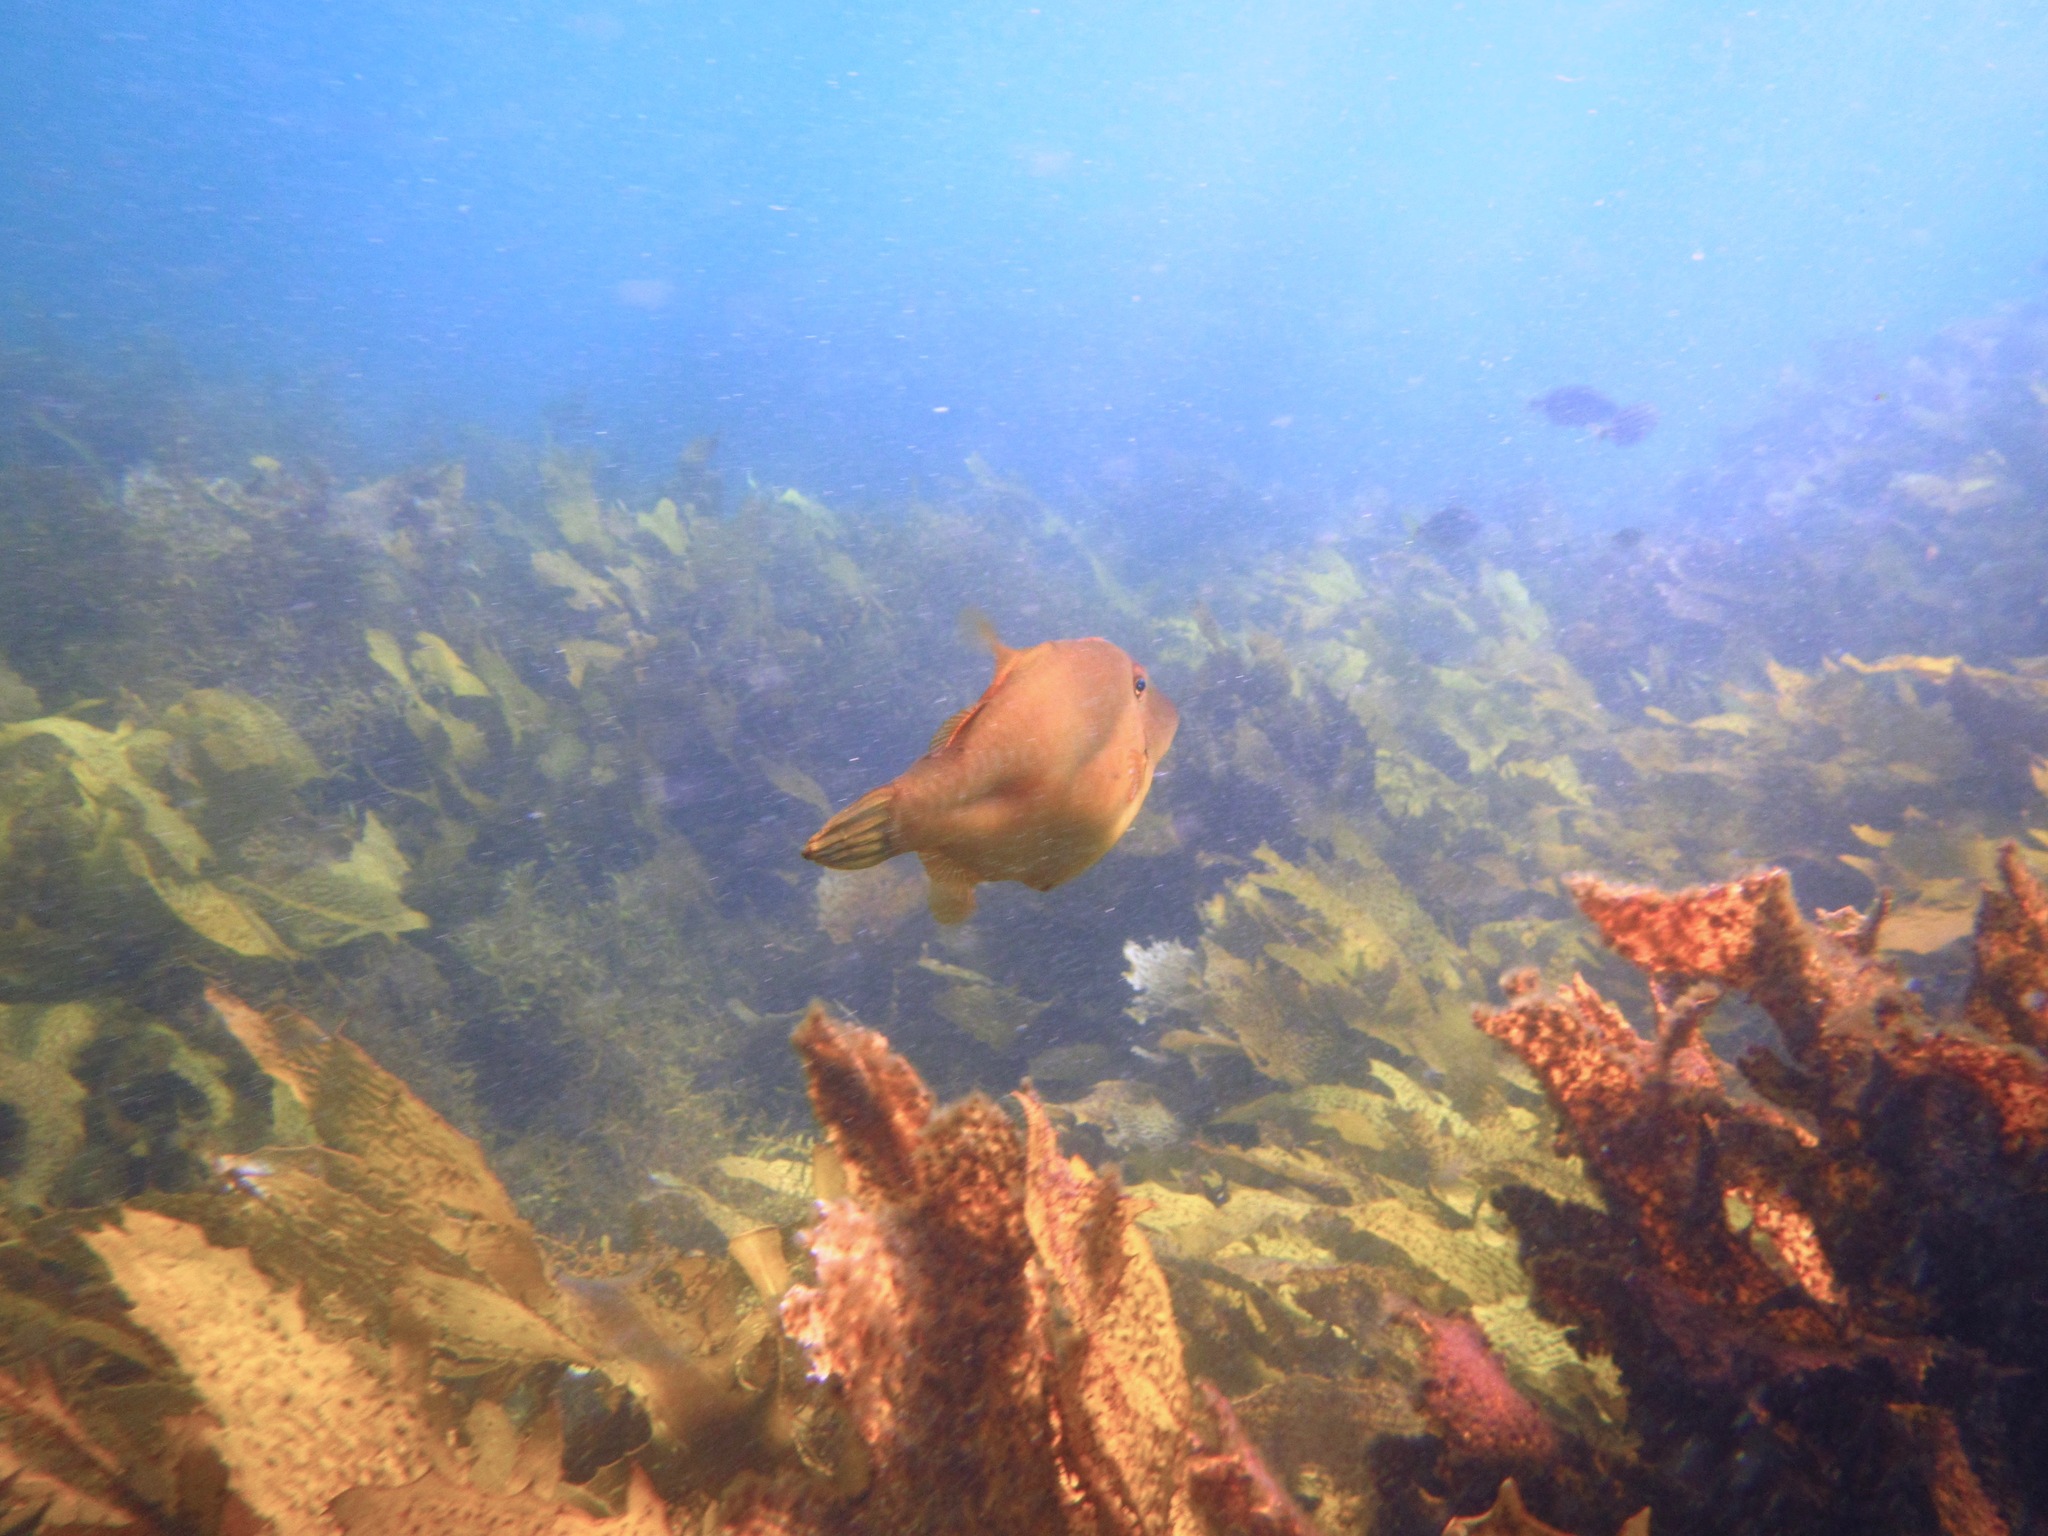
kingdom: Animalia
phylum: Chordata
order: Tetraodontiformes
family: Monacanthidae
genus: Acanthaluteres
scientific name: Acanthaluteres vittiger
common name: Brown leatherjacket
